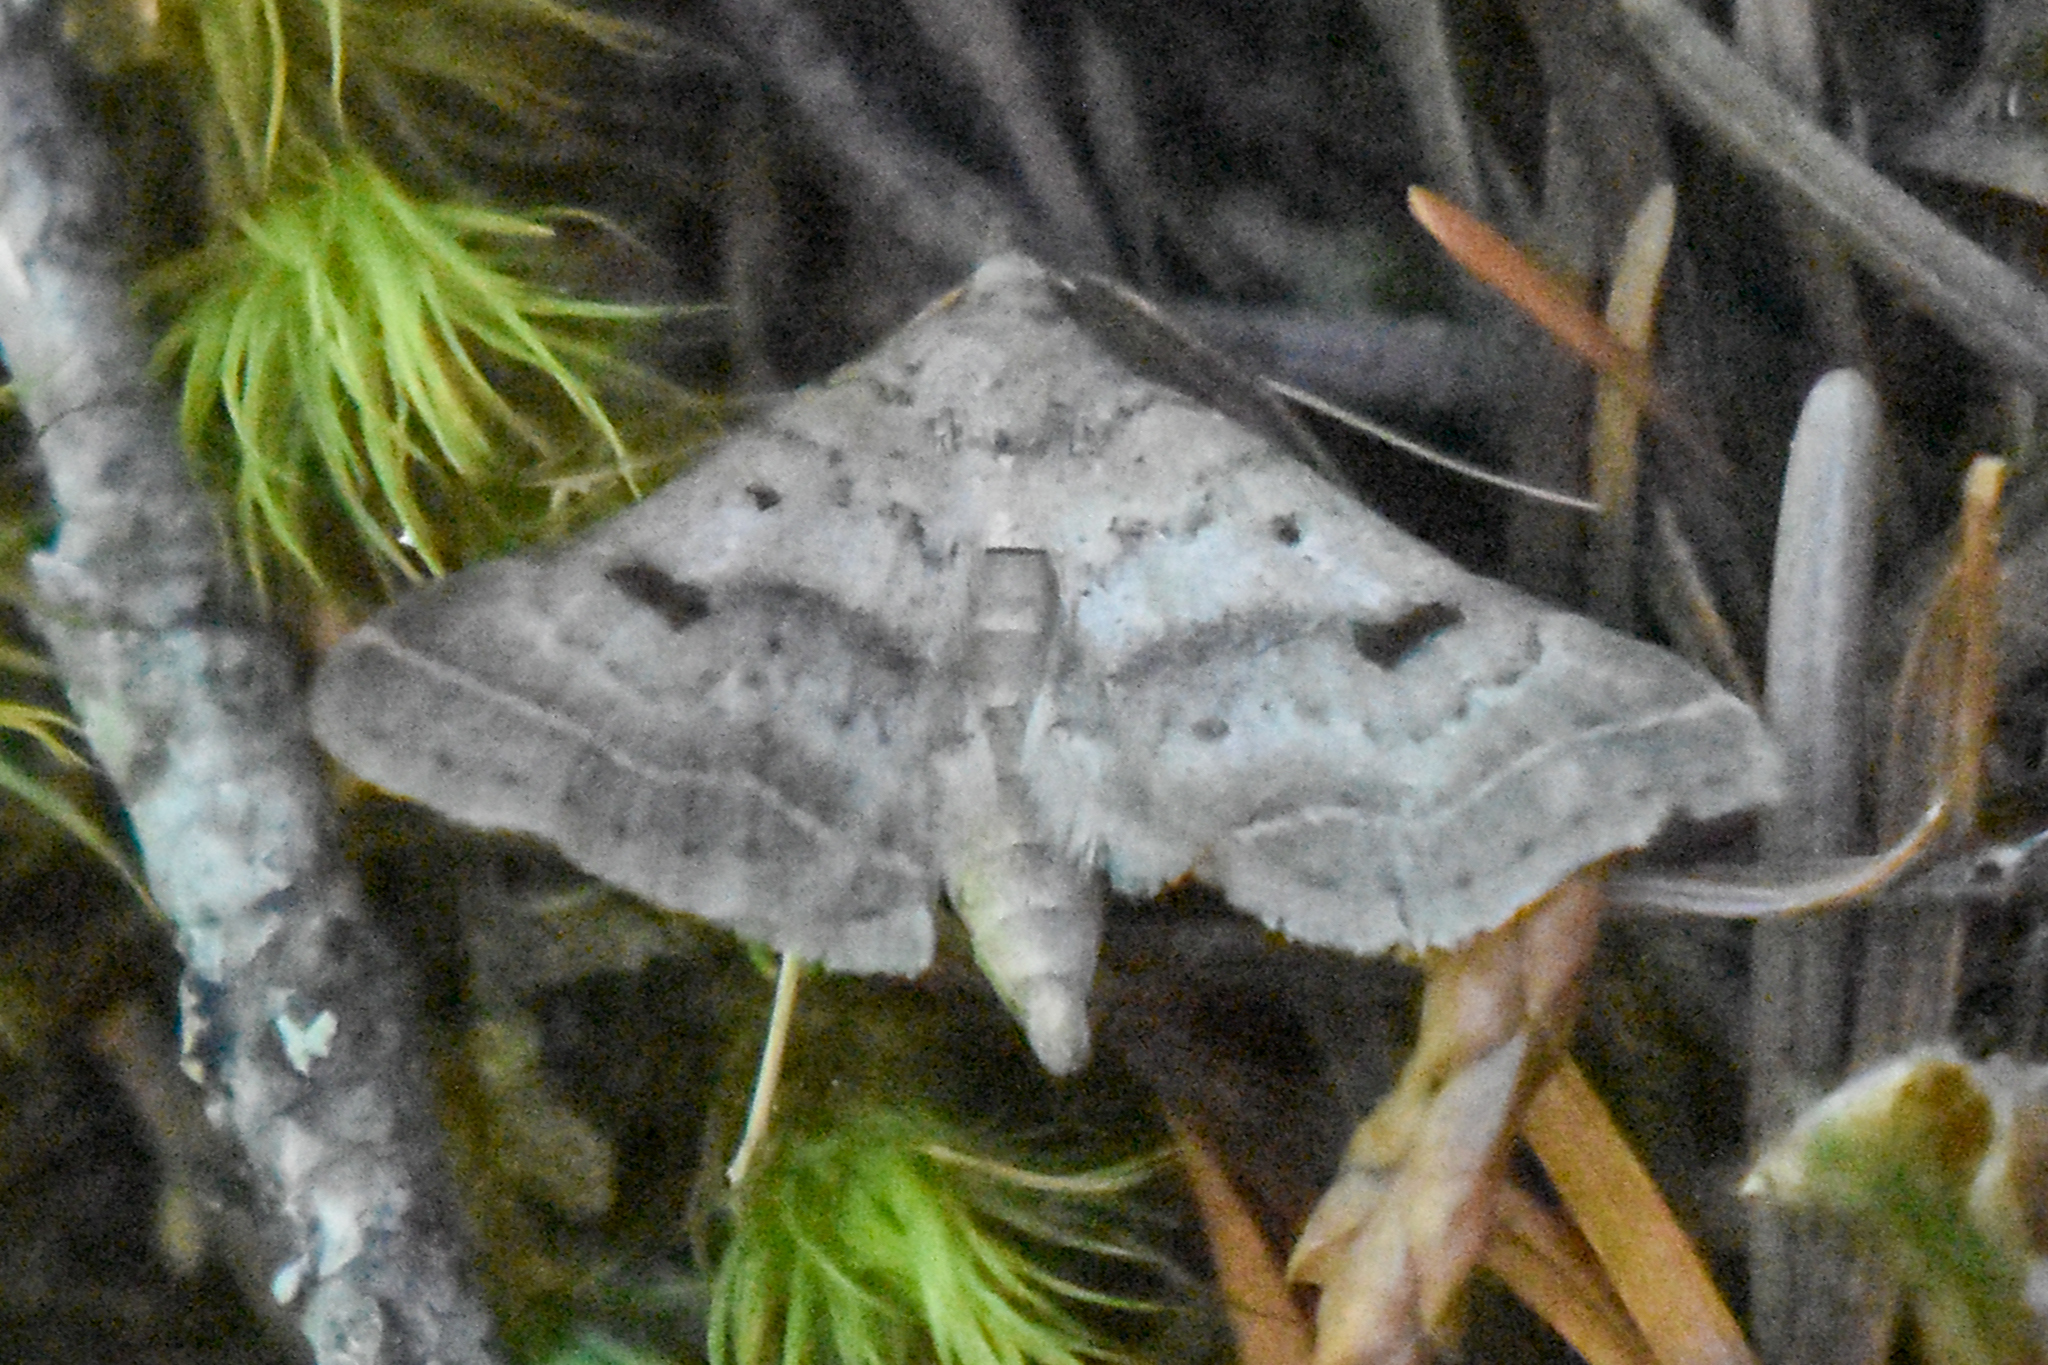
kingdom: Animalia
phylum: Arthropoda
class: Insecta
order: Lepidoptera
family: Erebidae
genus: Bleptina
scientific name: Bleptina caradrinalis
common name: Bent-winged owlet
